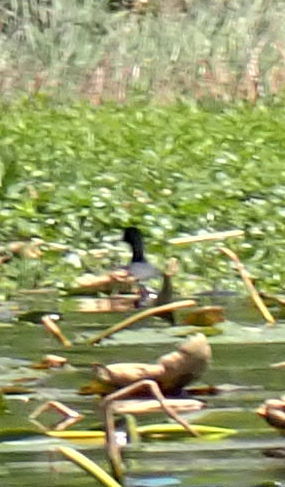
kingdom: Animalia
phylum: Chordata
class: Aves
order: Gruiformes
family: Rallidae
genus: Fulica
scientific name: Fulica americana
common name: American coot
